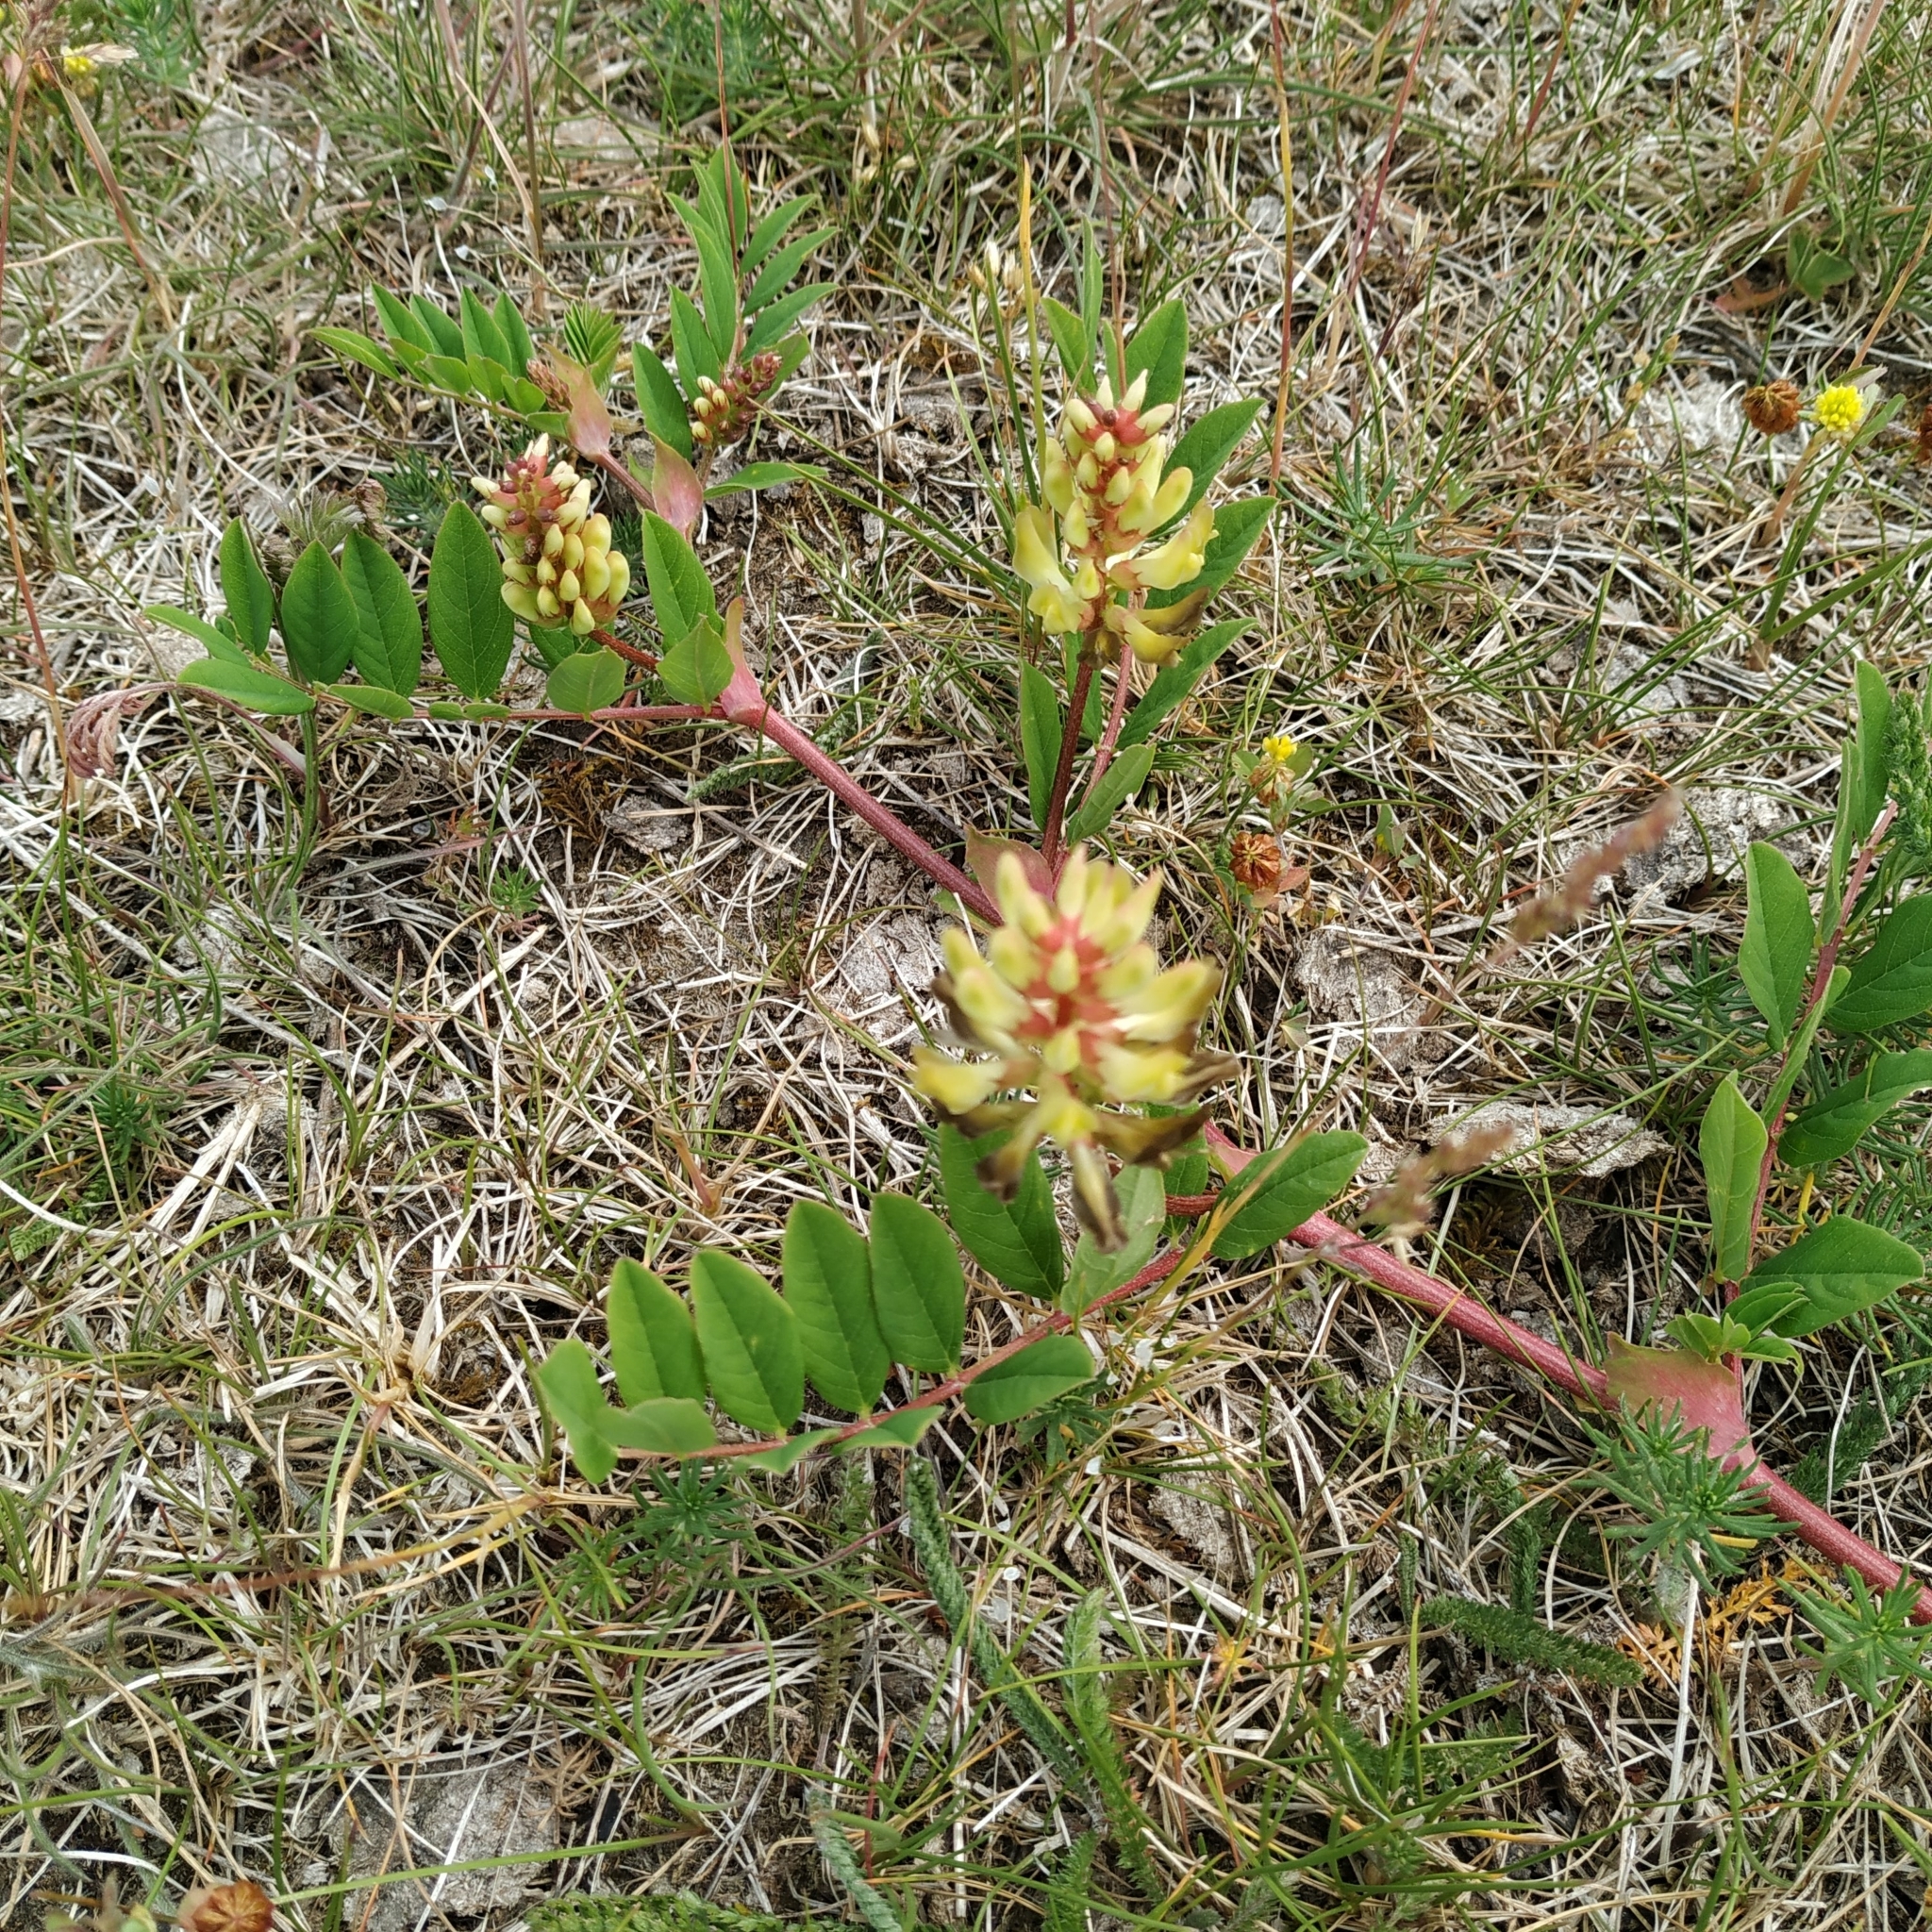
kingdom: Plantae
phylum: Tracheophyta
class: Magnoliopsida
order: Fabales
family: Fabaceae
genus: Astragalus
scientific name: Astragalus glycyphyllos
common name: Wild liquorice
